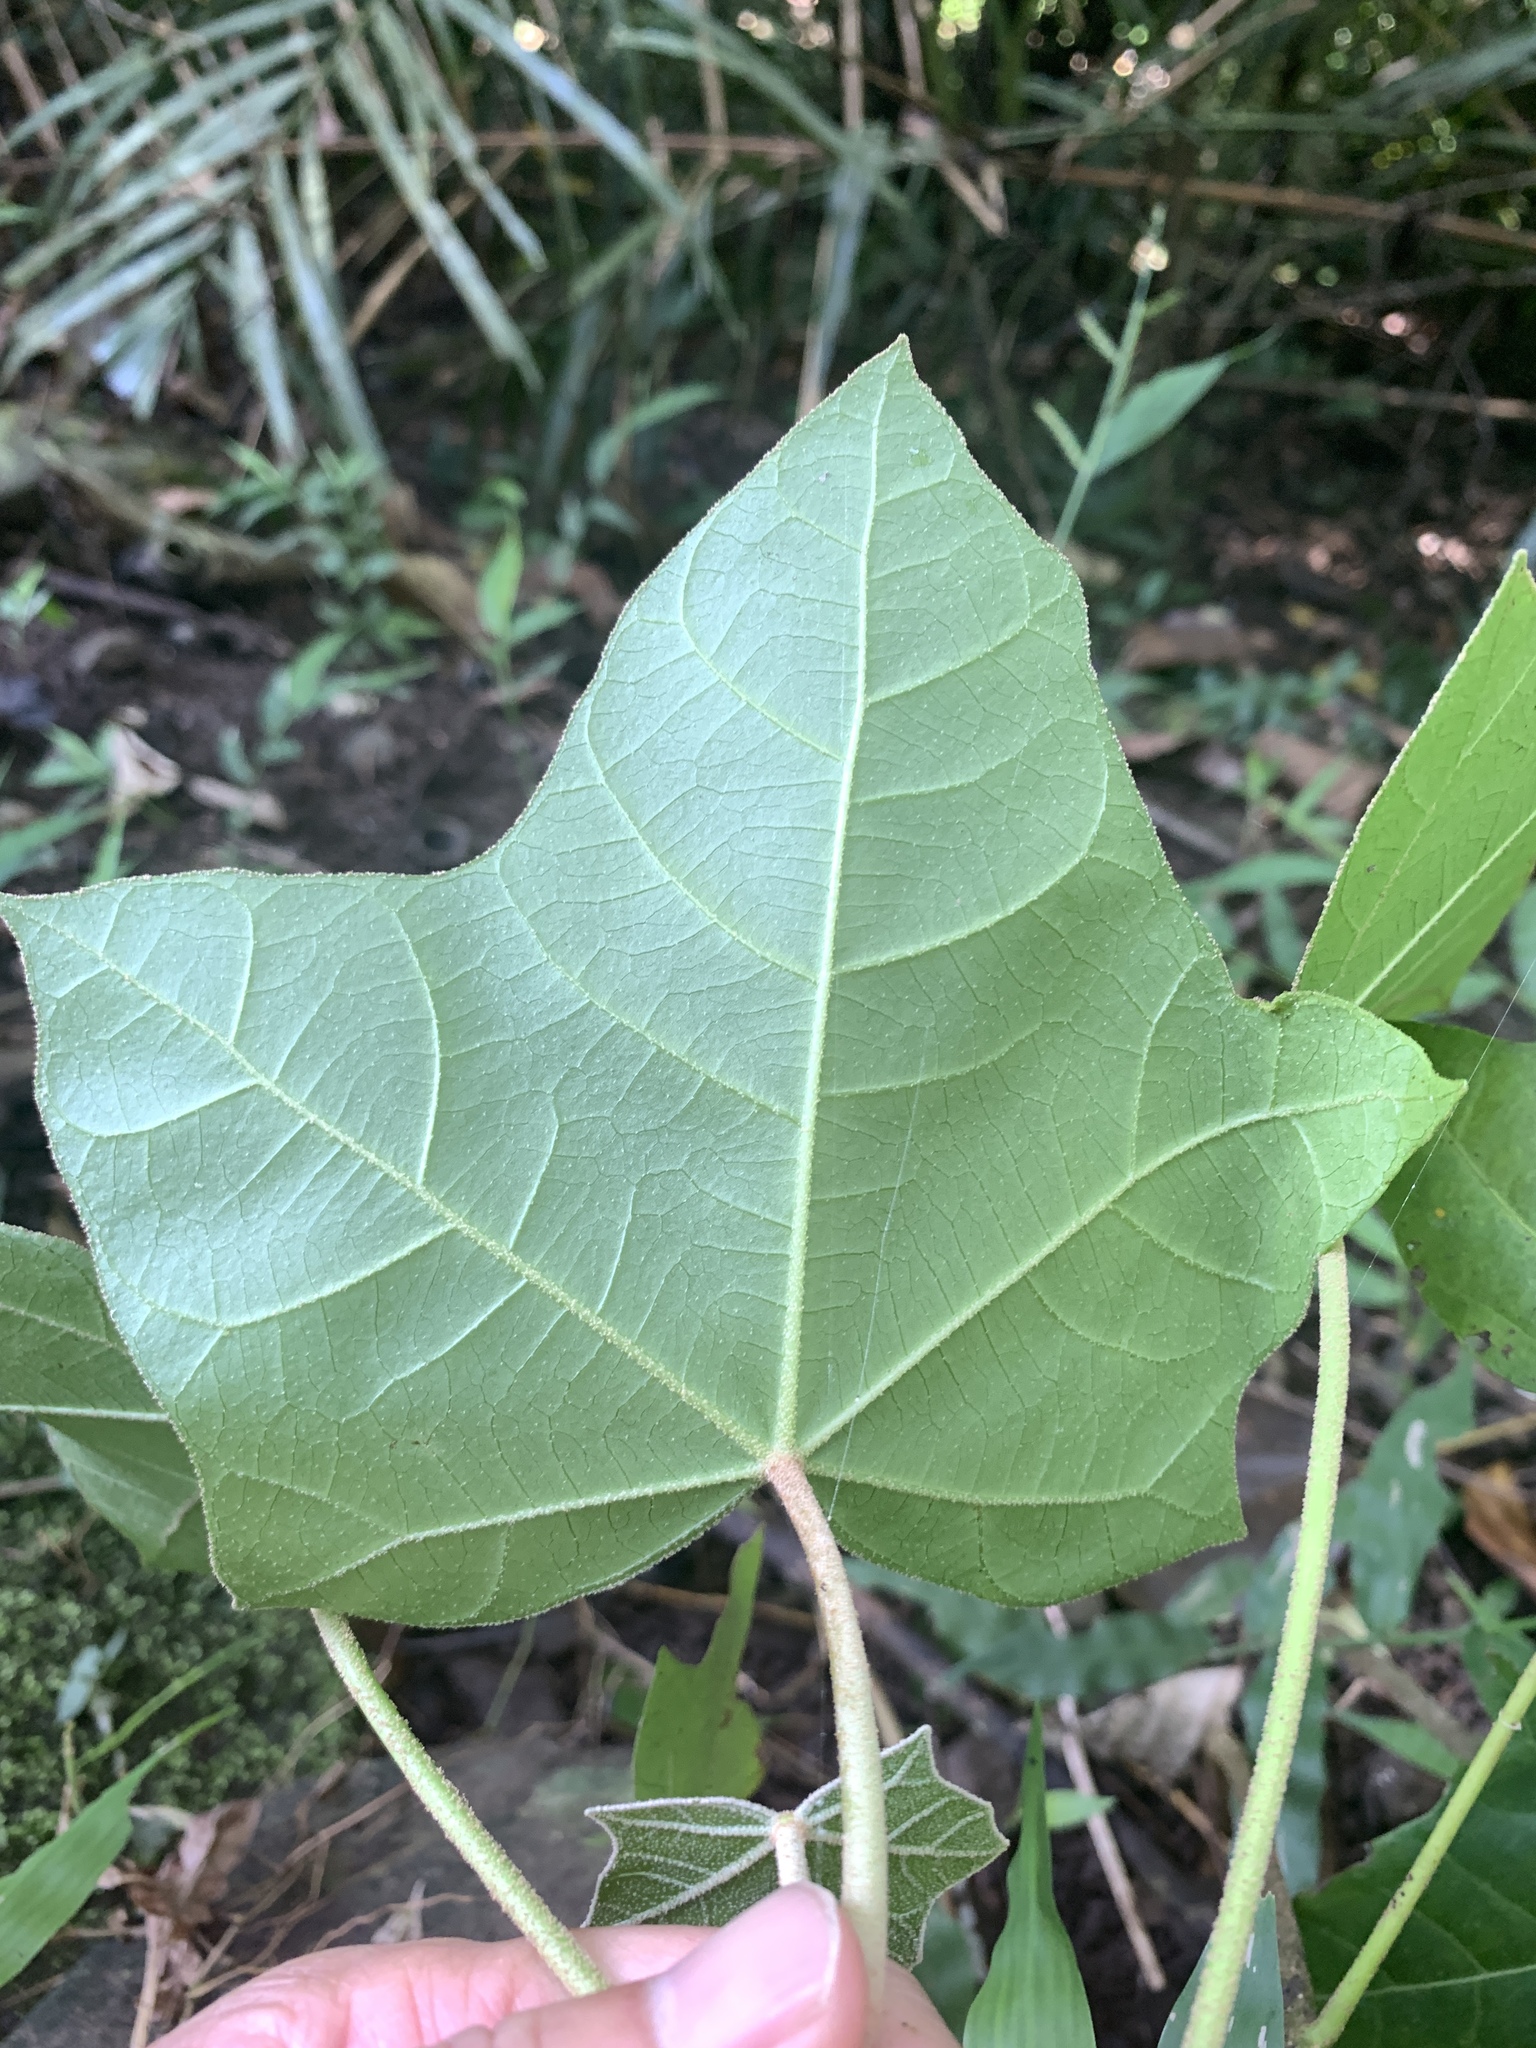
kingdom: Plantae
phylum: Tracheophyta
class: Magnoliopsida
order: Malpighiales
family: Euphorbiaceae
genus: Aleurites
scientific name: Aleurites moluccanus
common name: Candlenut tree
